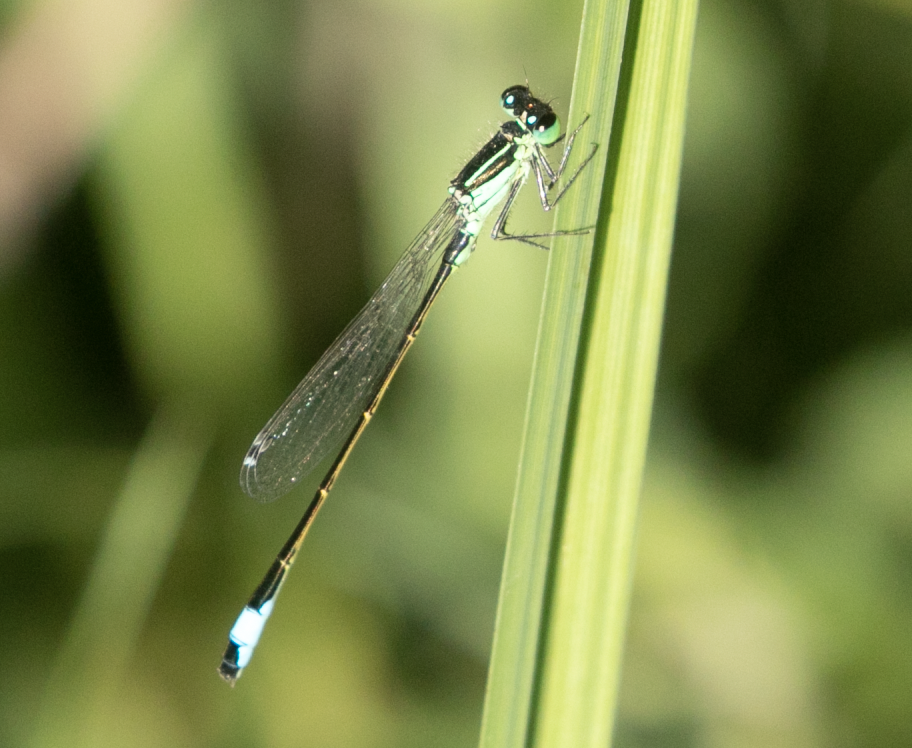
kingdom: Animalia
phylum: Arthropoda
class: Insecta
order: Odonata
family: Coenagrionidae
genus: Ischnura
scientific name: Ischnura elegans
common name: Blue-tailed damselfly
